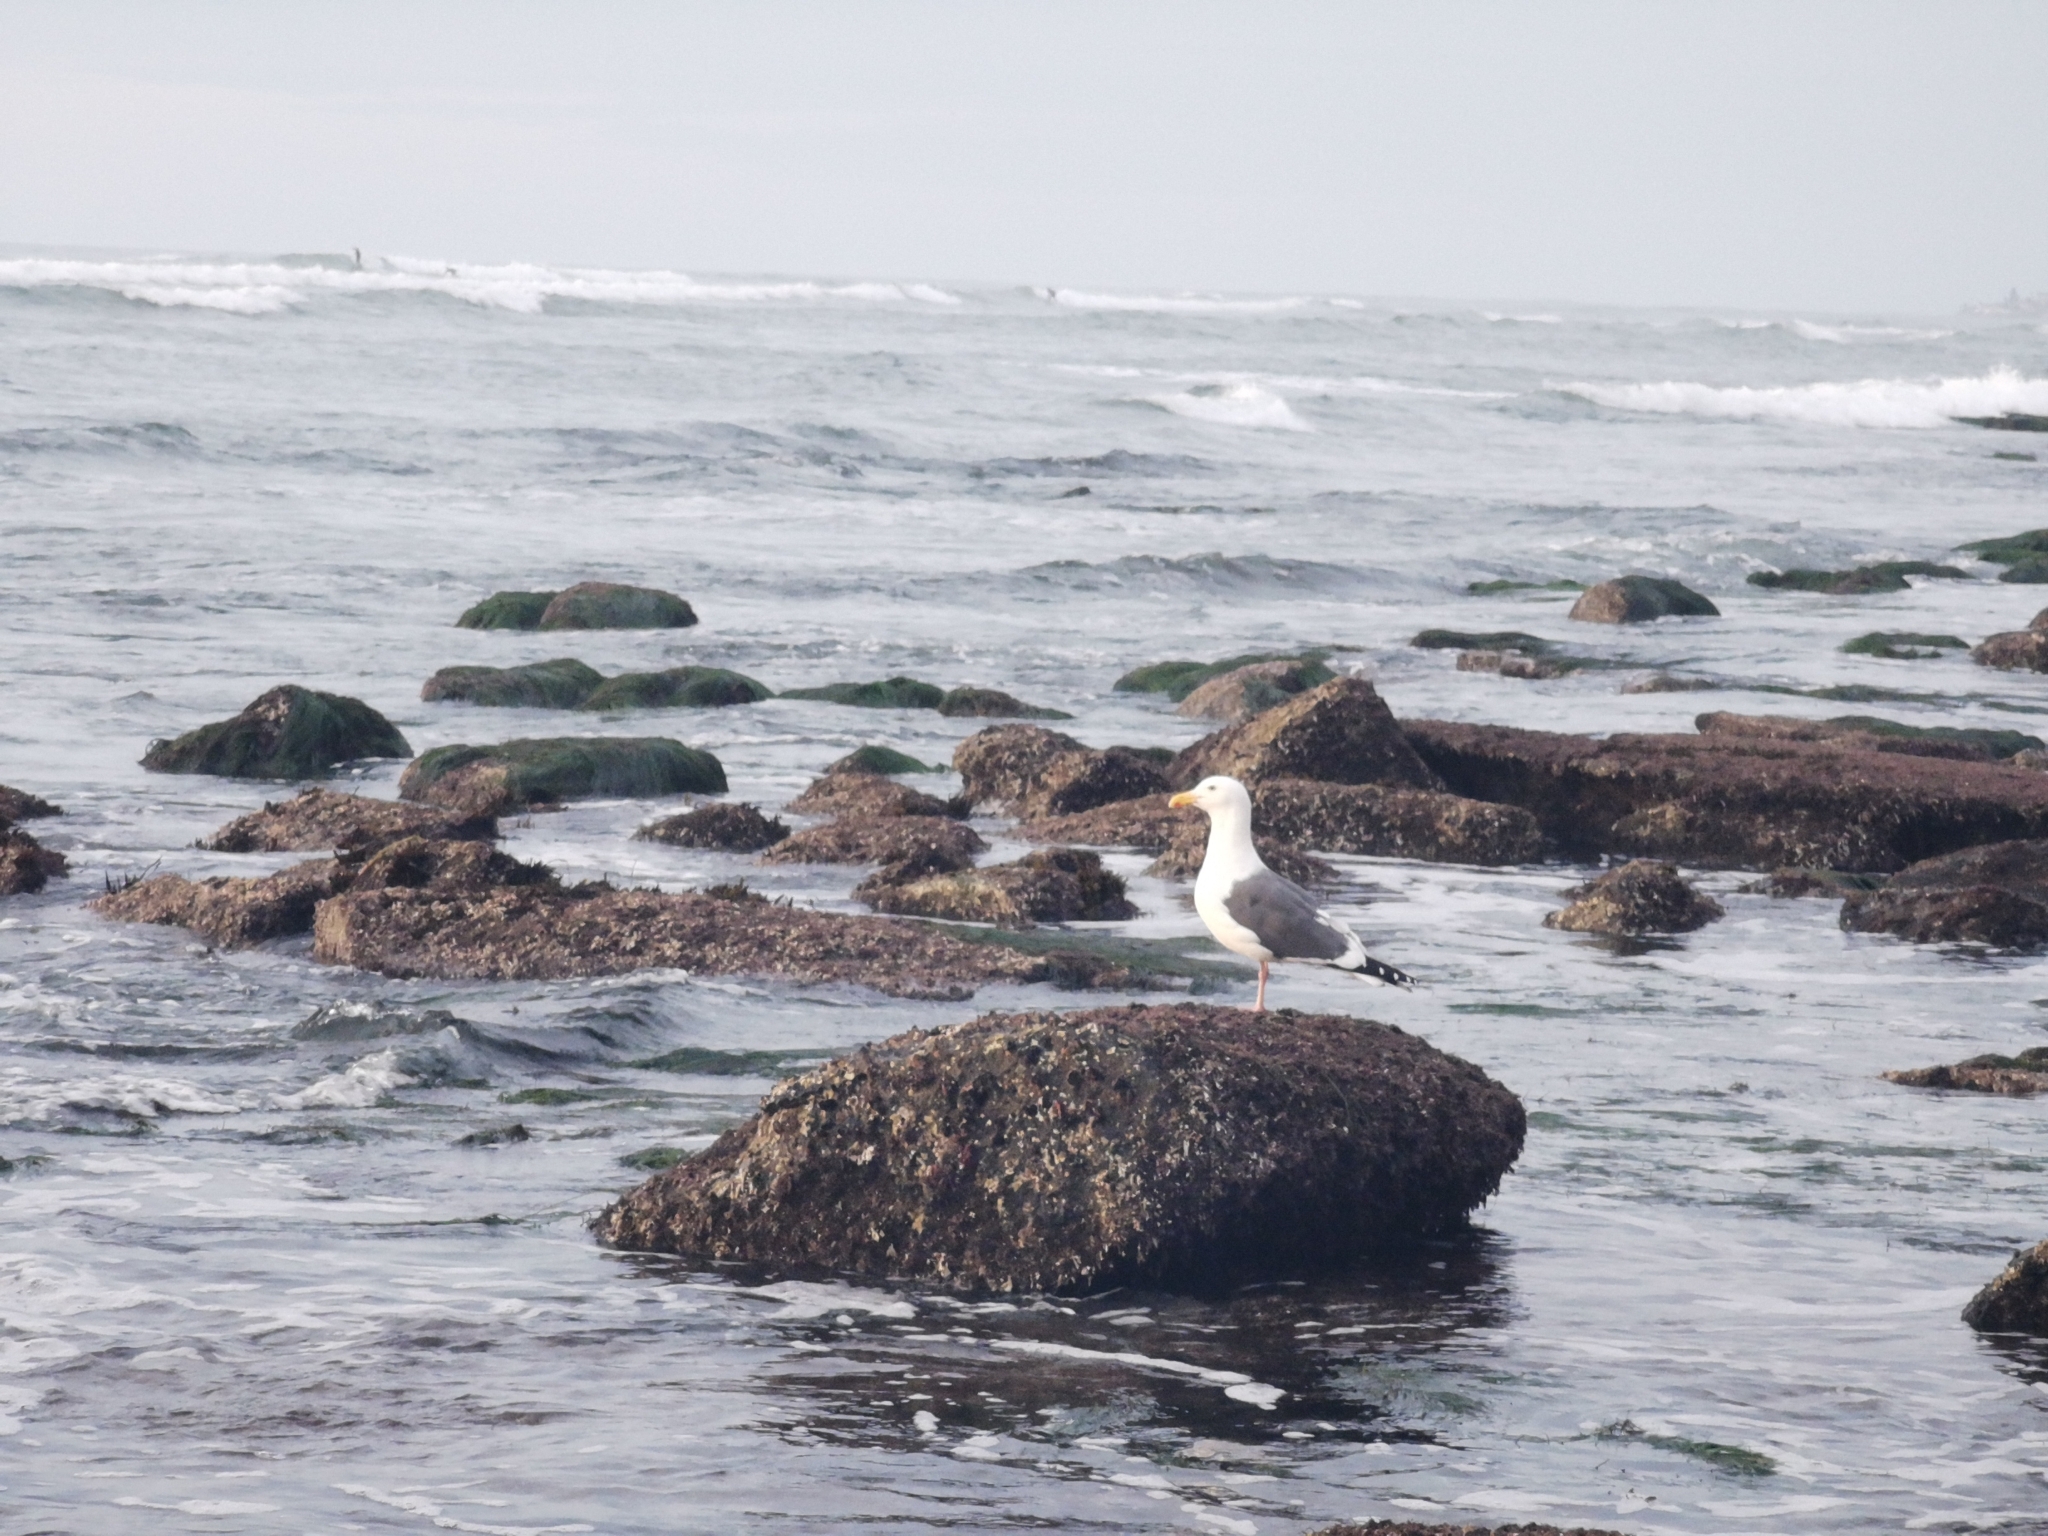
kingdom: Animalia
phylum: Chordata
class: Aves
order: Charadriiformes
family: Laridae
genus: Larus
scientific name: Larus occidentalis
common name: Western gull
